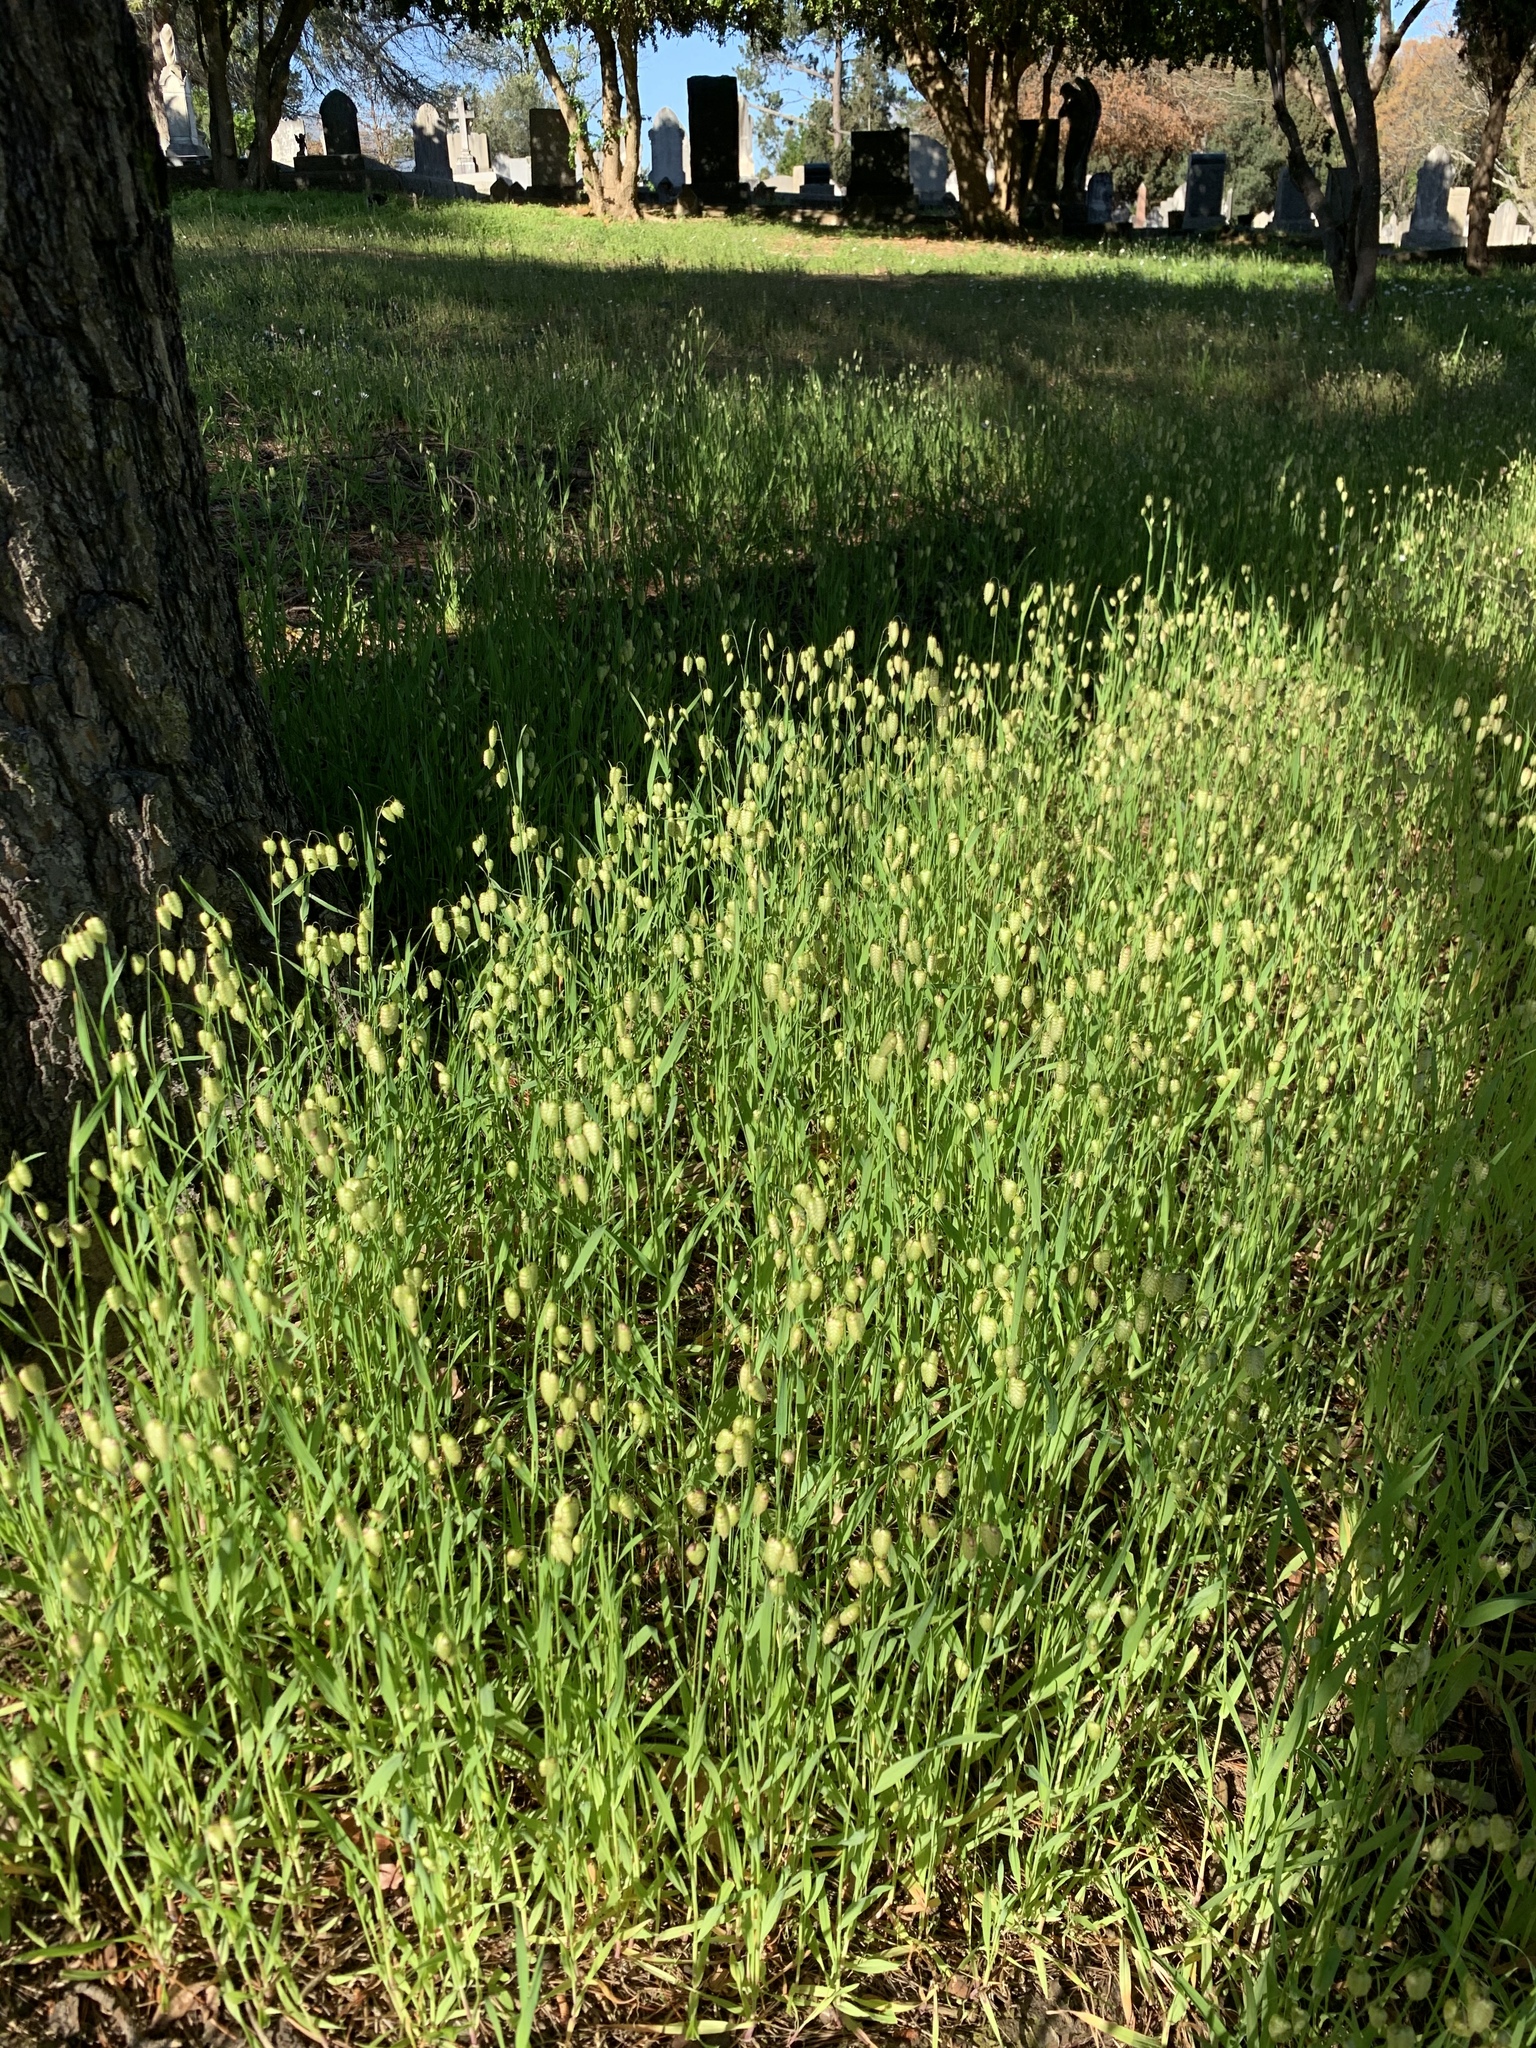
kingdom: Plantae
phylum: Tracheophyta
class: Liliopsida
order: Poales
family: Poaceae
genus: Briza
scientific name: Briza maxima
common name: Big quakinggrass
